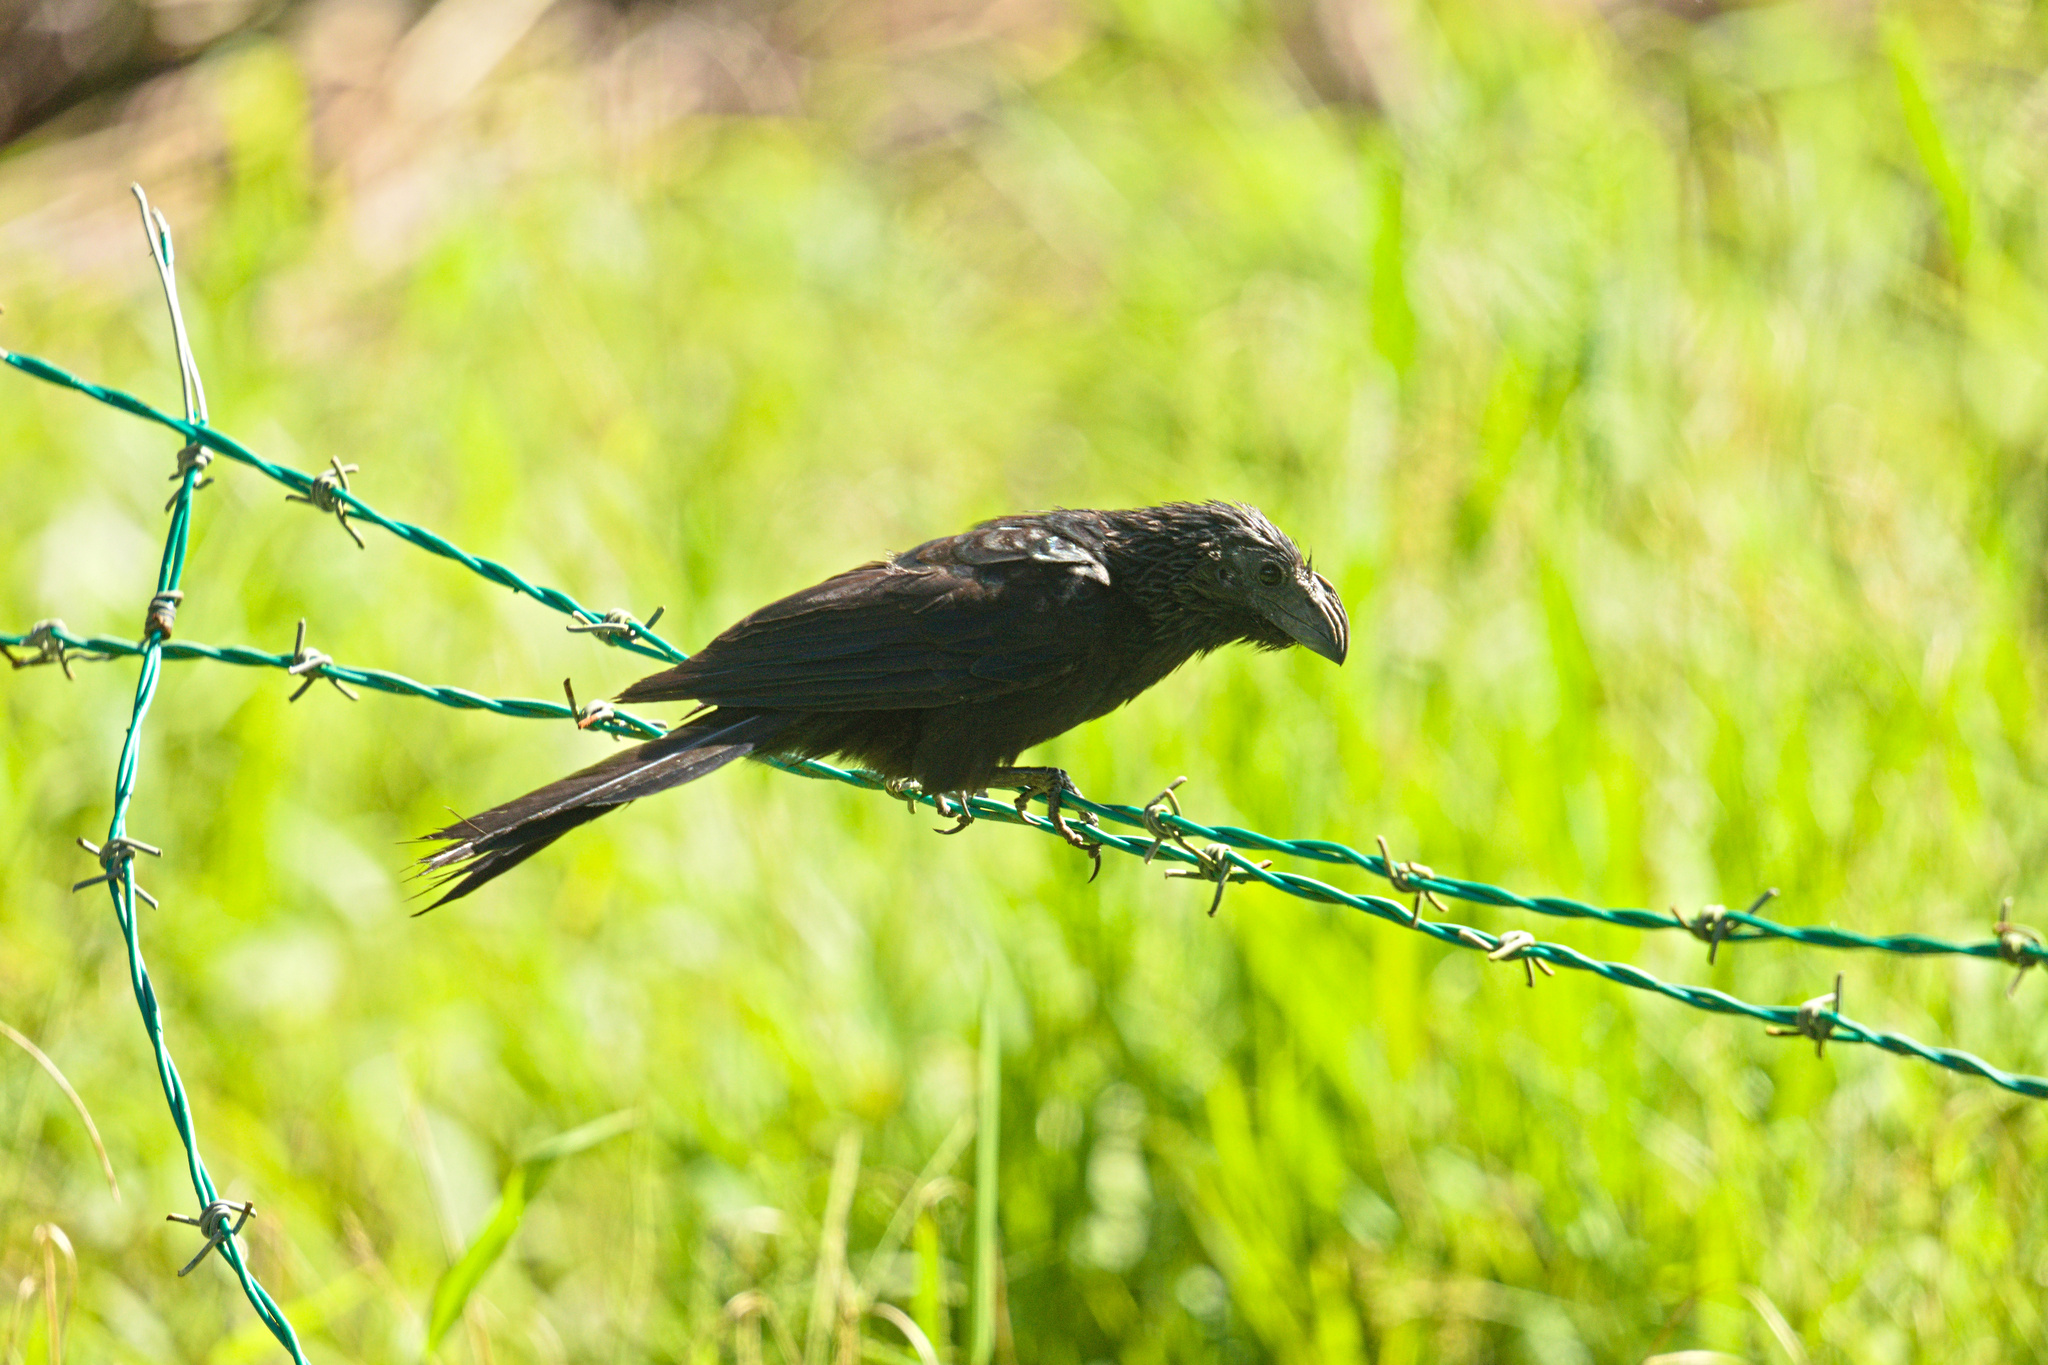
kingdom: Animalia
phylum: Chordata
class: Aves
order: Cuculiformes
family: Cuculidae
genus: Crotophaga
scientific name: Crotophaga sulcirostris
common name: Groove-billed ani
